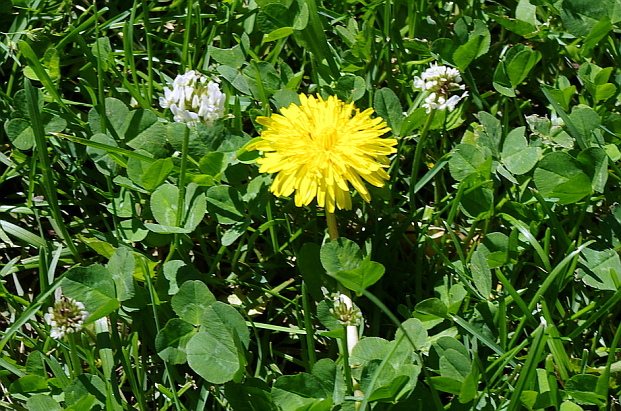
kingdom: Plantae
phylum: Tracheophyta
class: Magnoliopsida
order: Asterales
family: Asteraceae
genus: Taraxacum
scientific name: Taraxacum officinale
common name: Common dandelion
